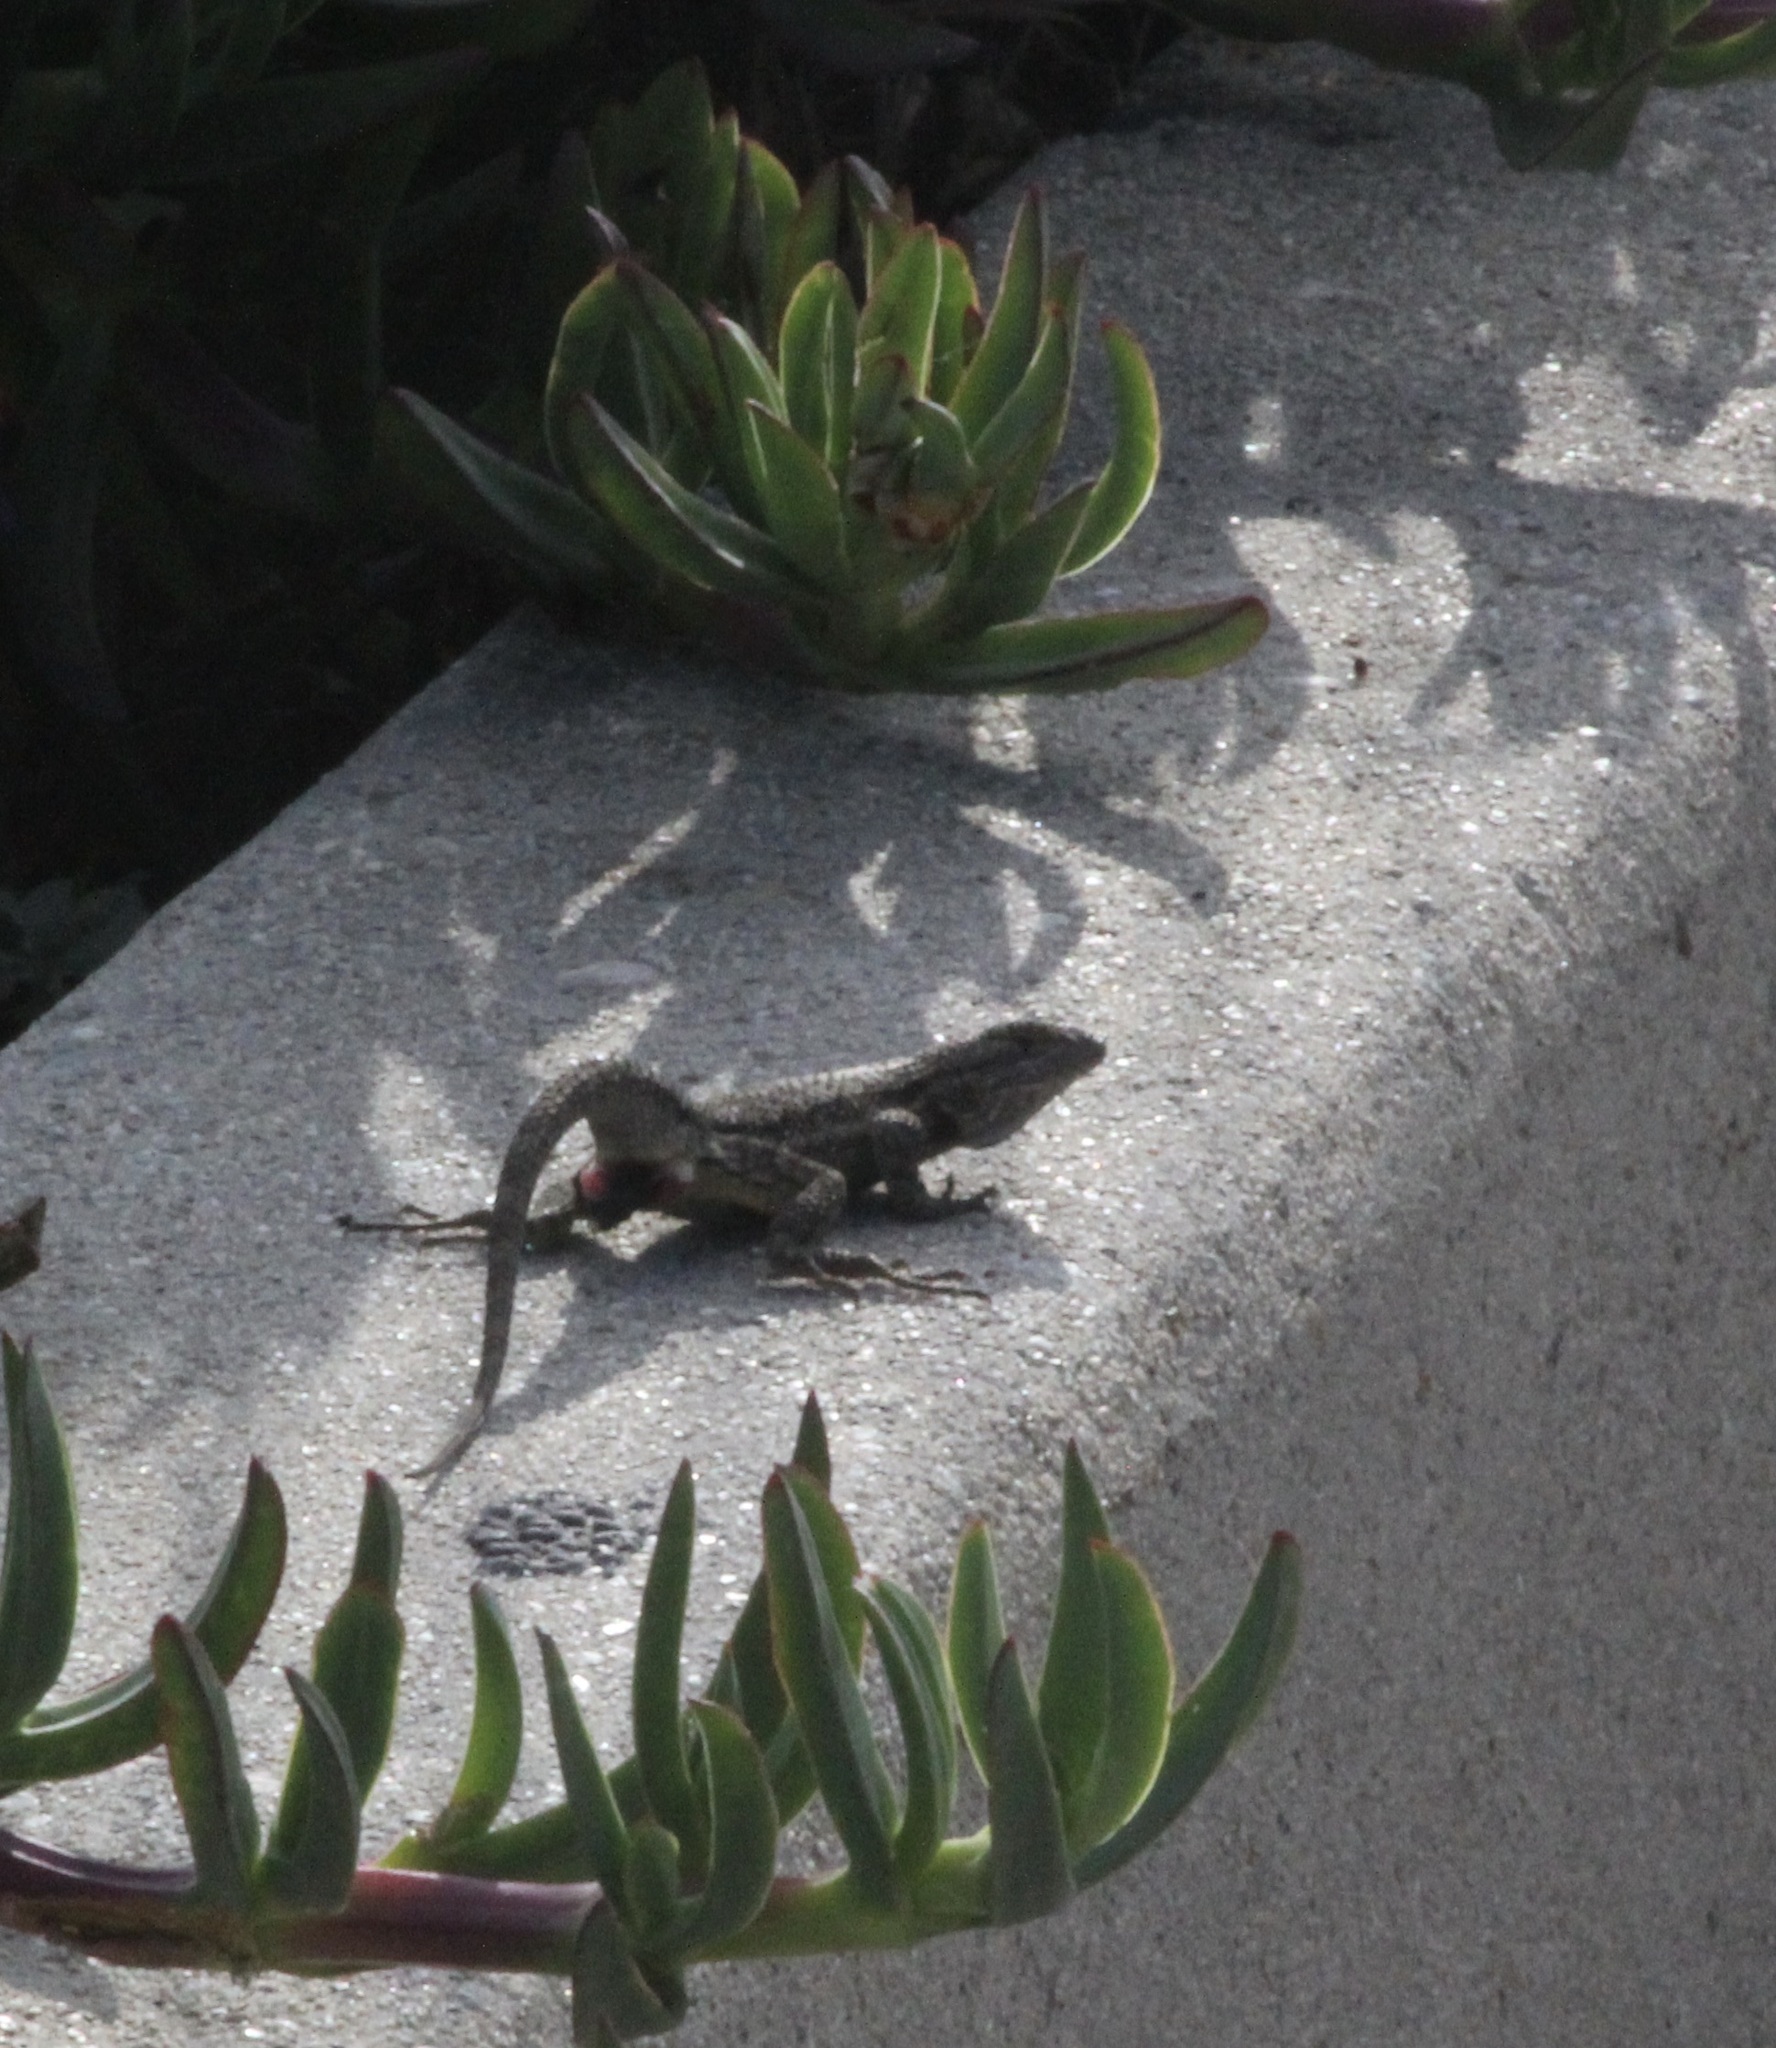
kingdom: Animalia
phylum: Chordata
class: Squamata
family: Phrynosomatidae
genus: Sceloporus
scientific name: Sceloporus occidentalis
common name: Western fence lizard
